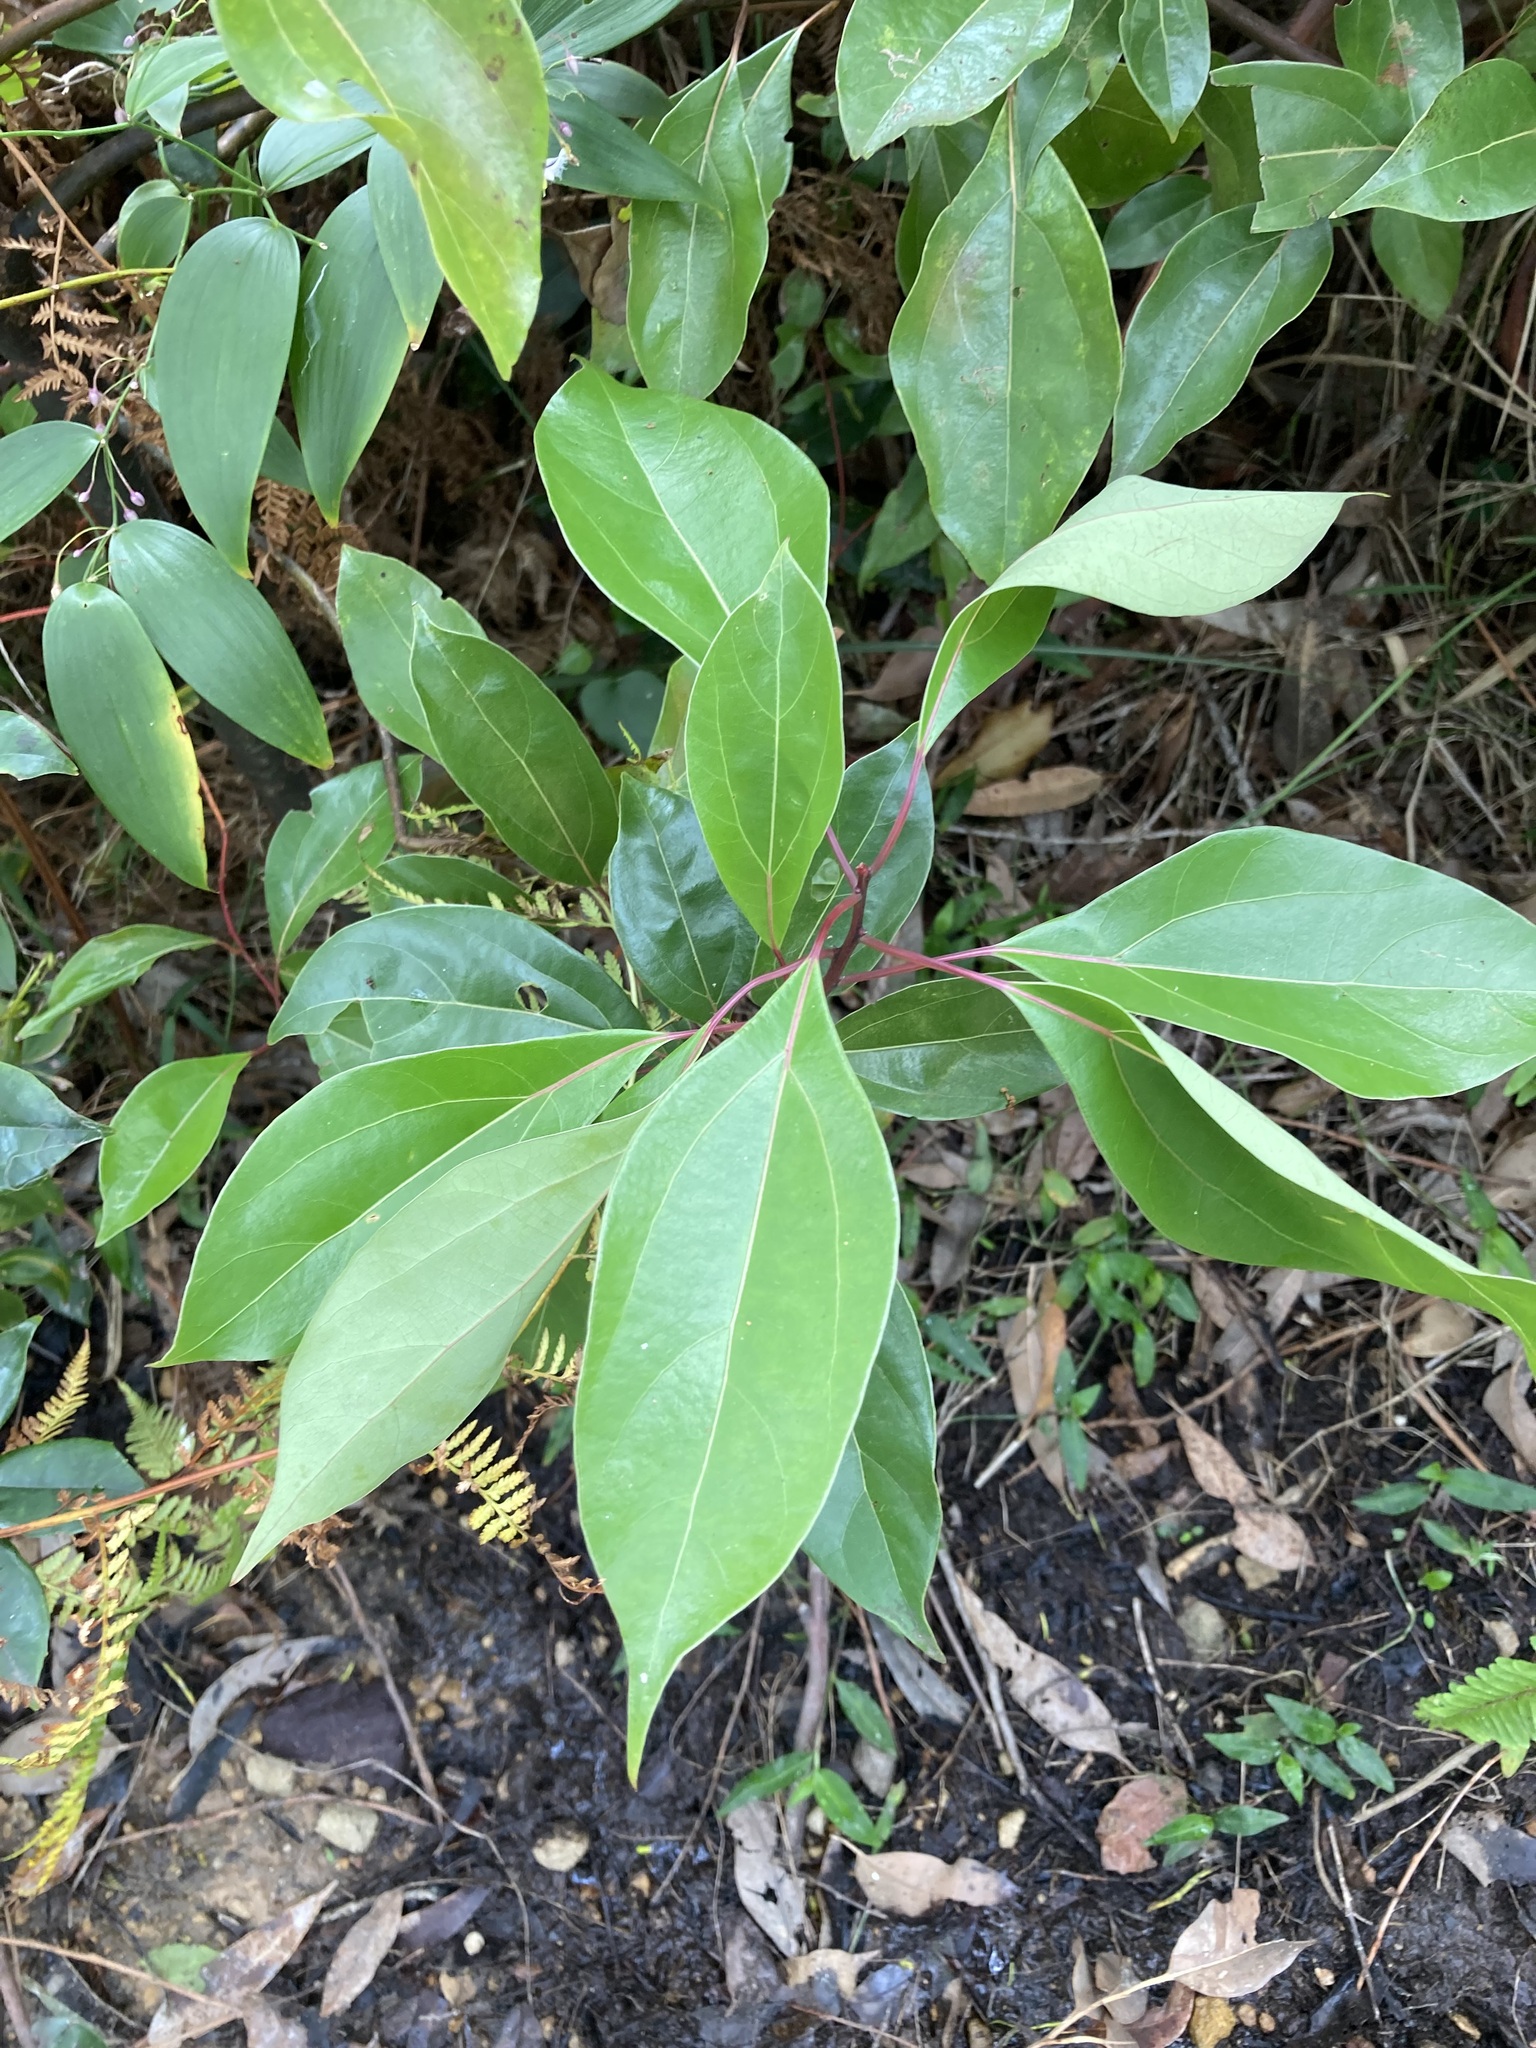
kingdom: Plantae
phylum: Tracheophyta
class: Magnoliopsida
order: Laurales
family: Lauraceae
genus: Cinnamomum
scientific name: Cinnamomum camphora
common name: Camphortree
